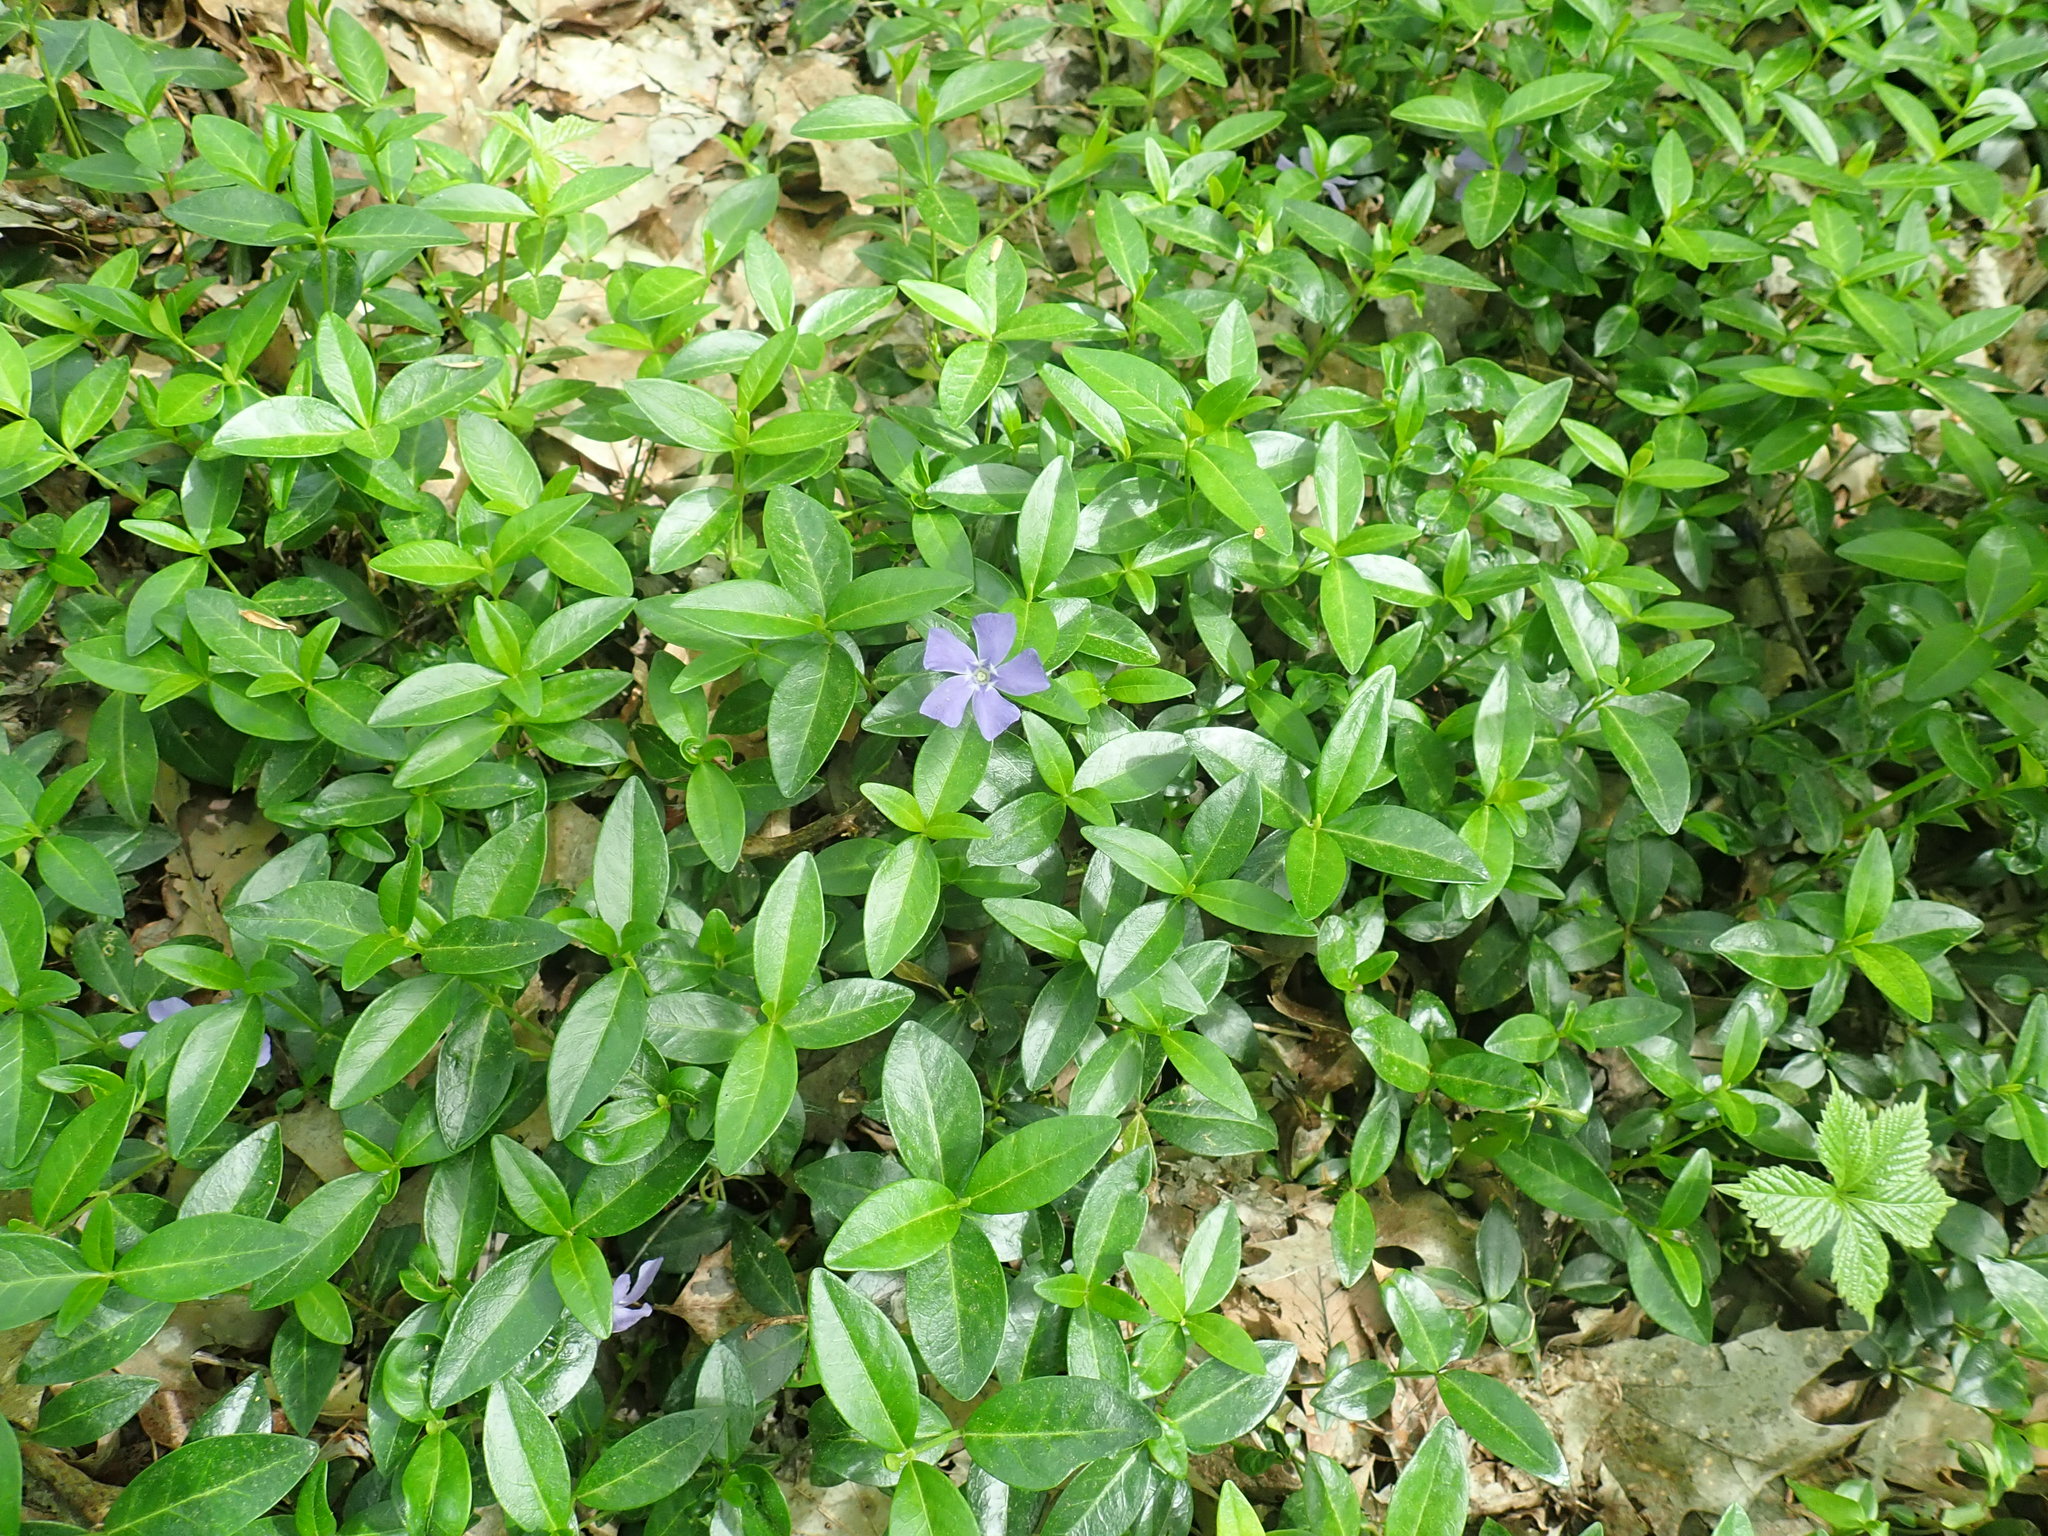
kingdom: Plantae
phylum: Tracheophyta
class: Magnoliopsida
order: Gentianales
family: Apocynaceae
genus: Vinca
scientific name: Vinca minor
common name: Lesser periwinkle
